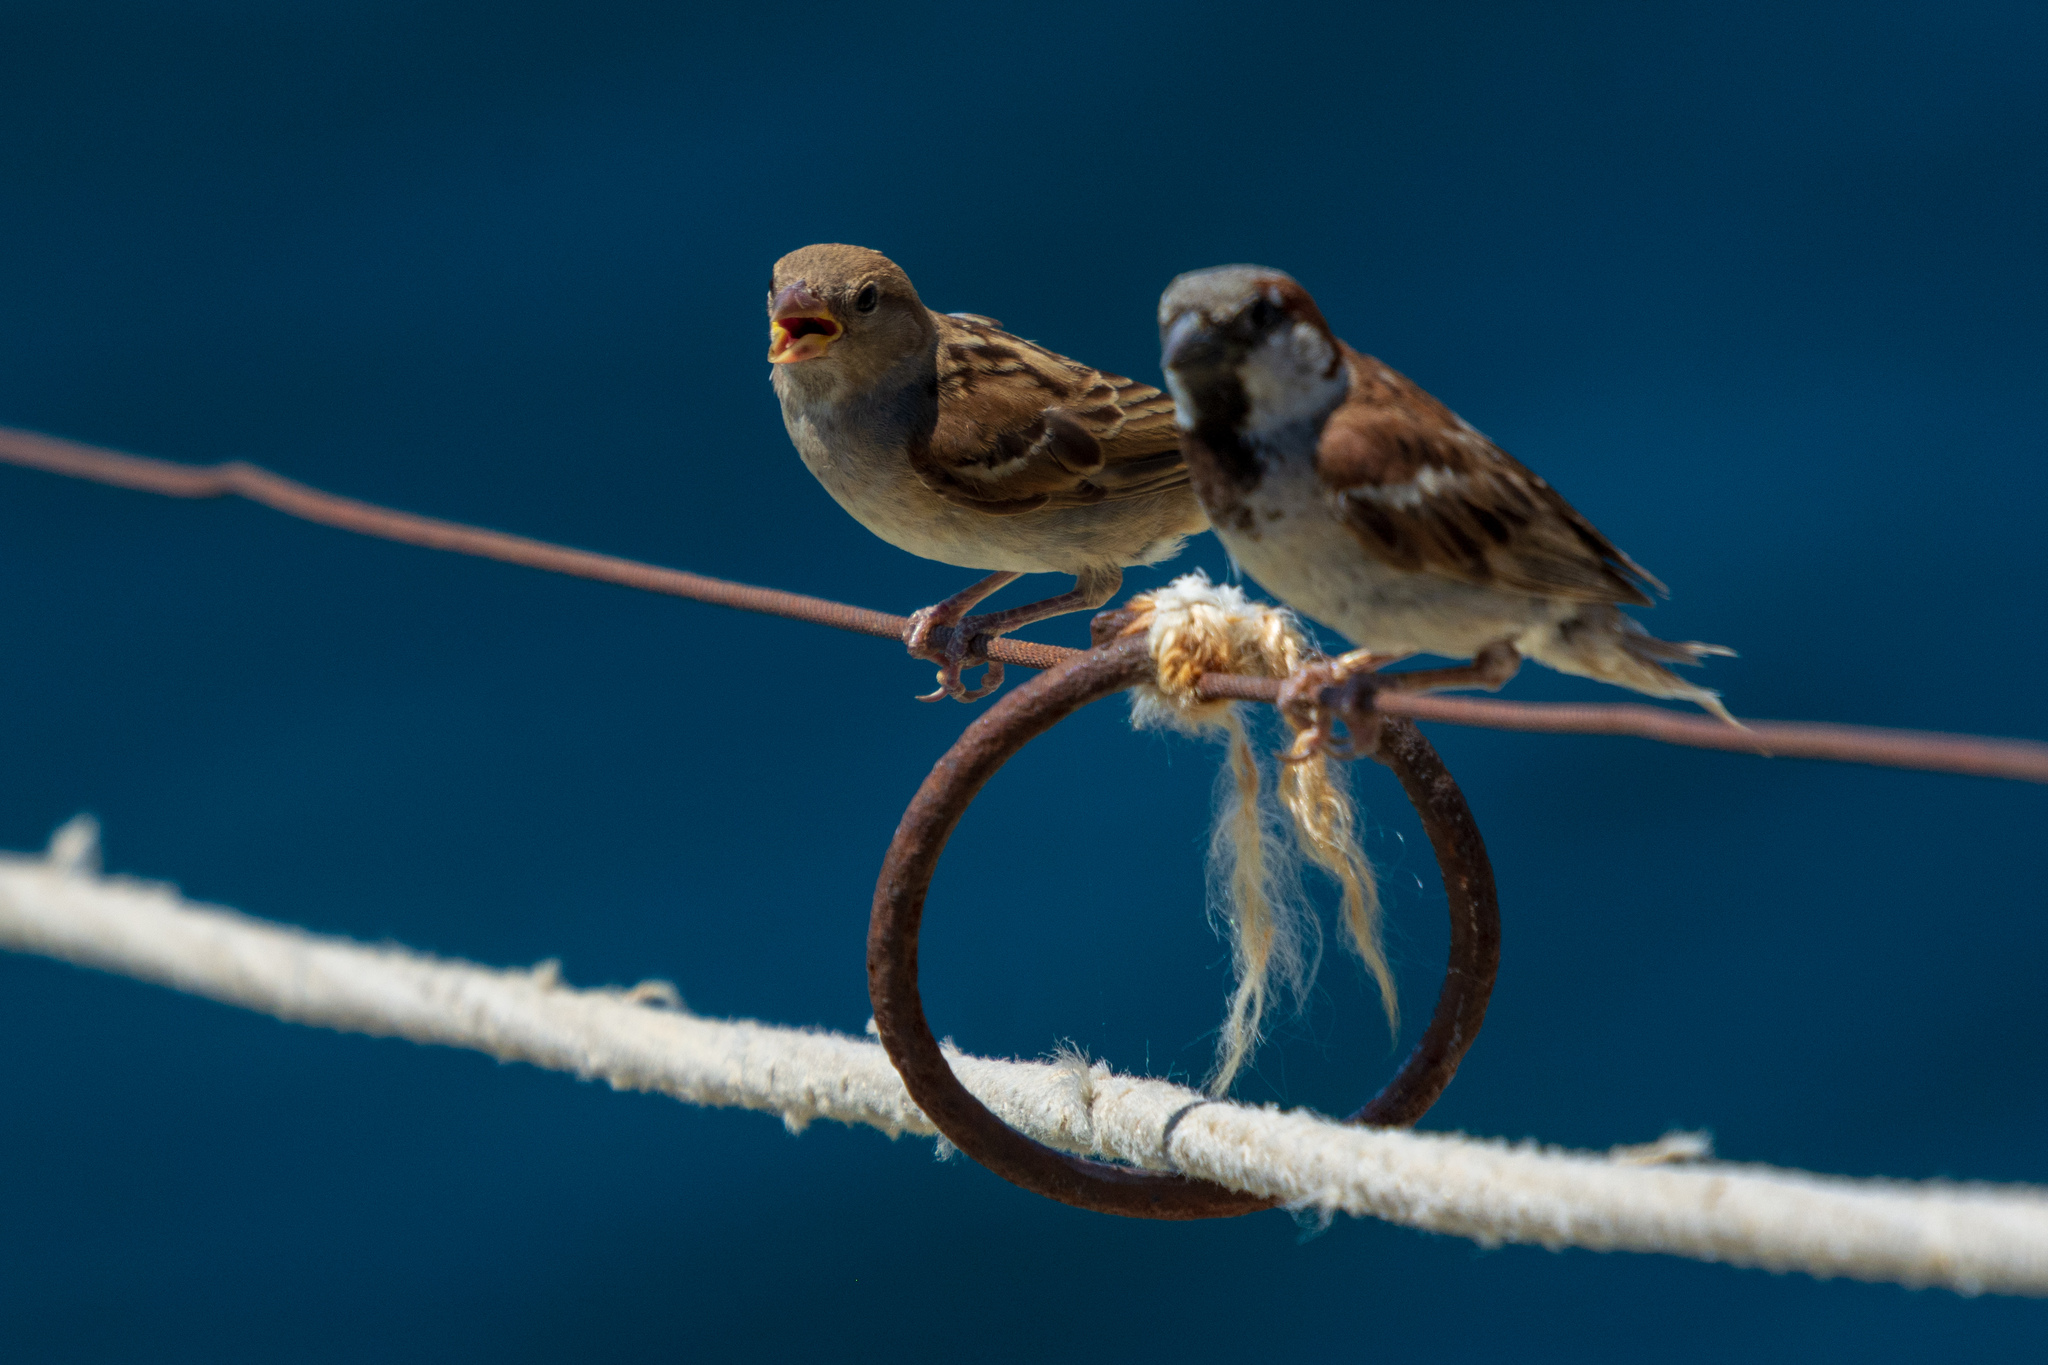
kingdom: Animalia
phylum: Chordata
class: Aves
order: Passeriformes
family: Passeridae
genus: Passer
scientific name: Passer domesticus
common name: House sparrow
